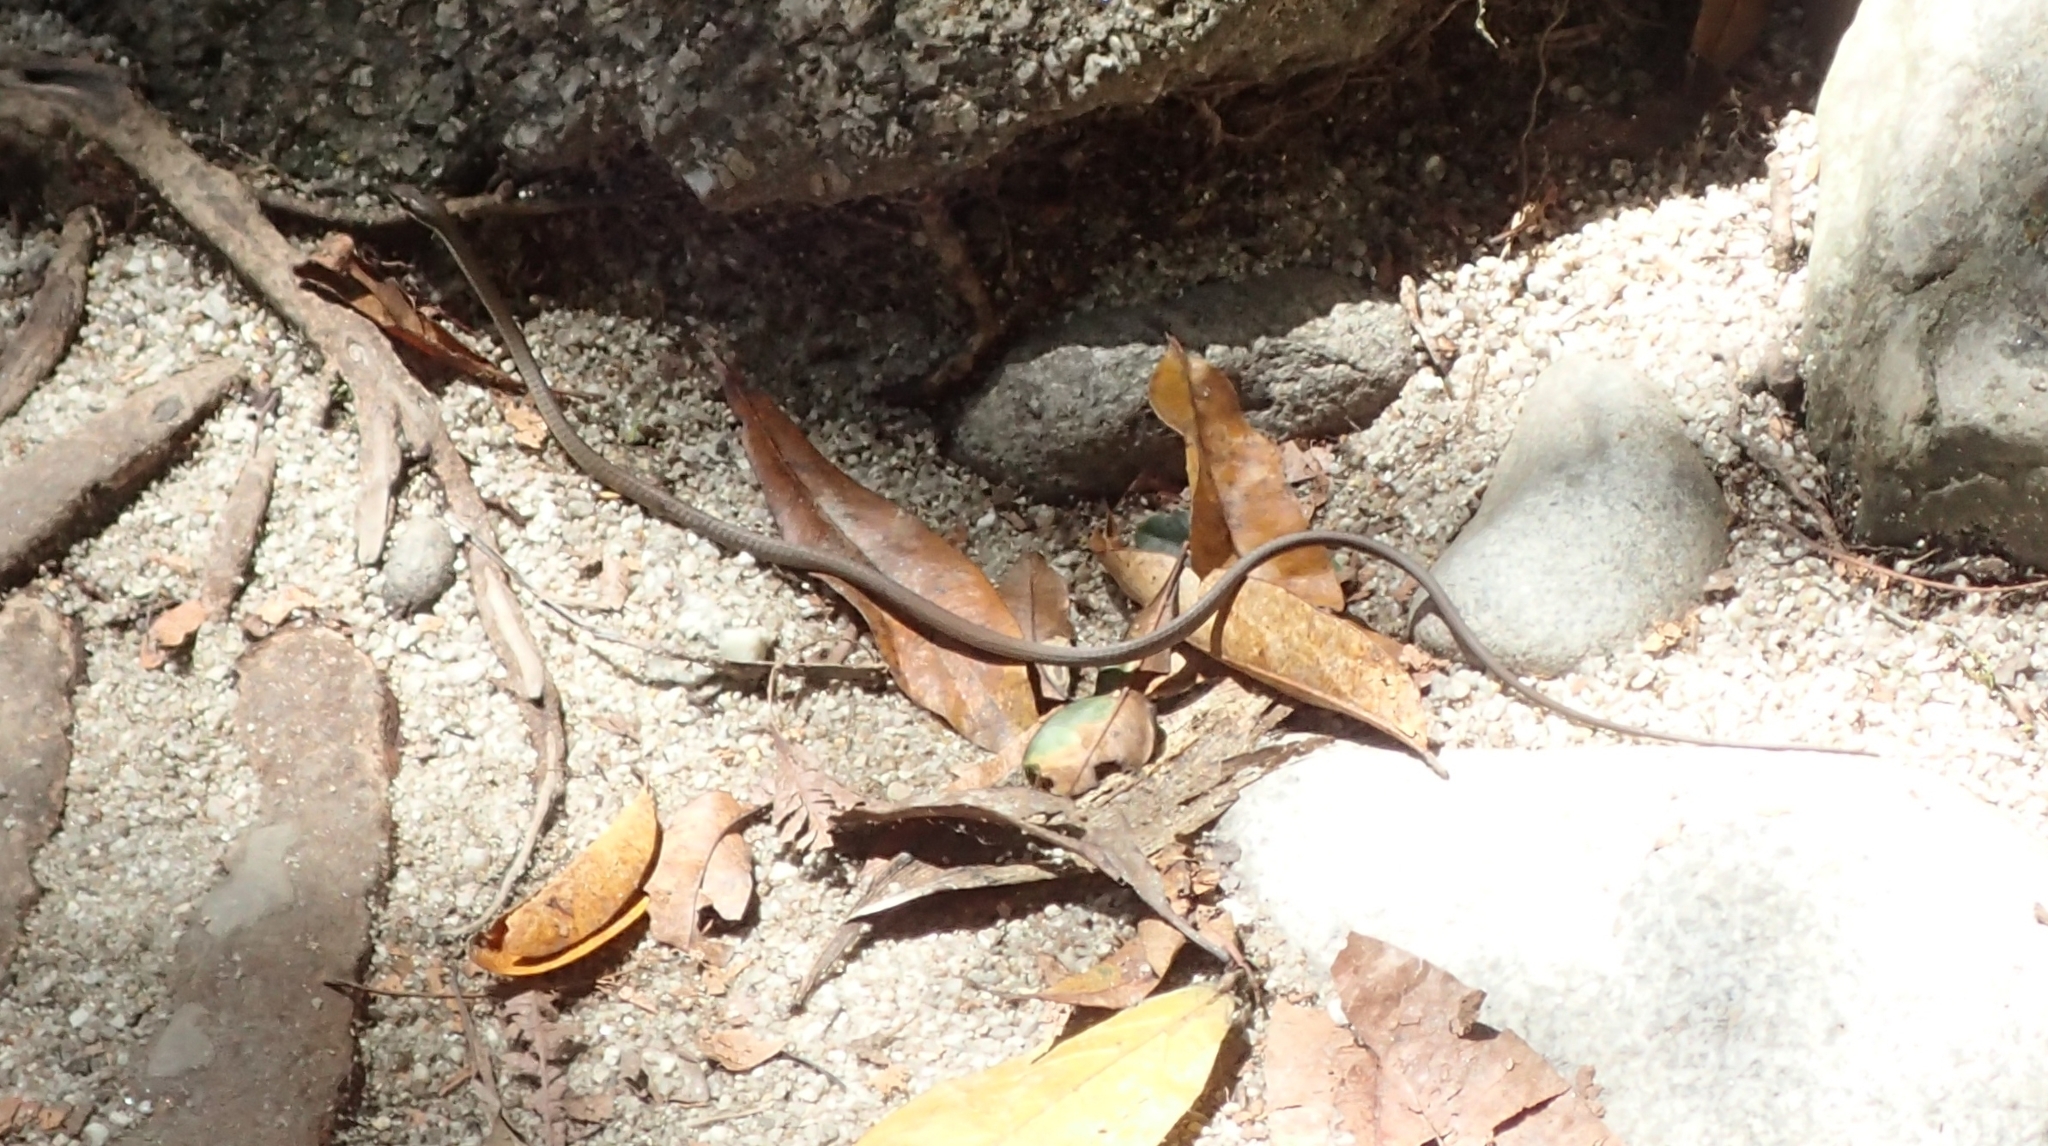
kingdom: Animalia
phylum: Chordata
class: Squamata
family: Colubridae
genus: Dendrelaphis
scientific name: Dendrelaphis calligaster
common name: Green tree snake
